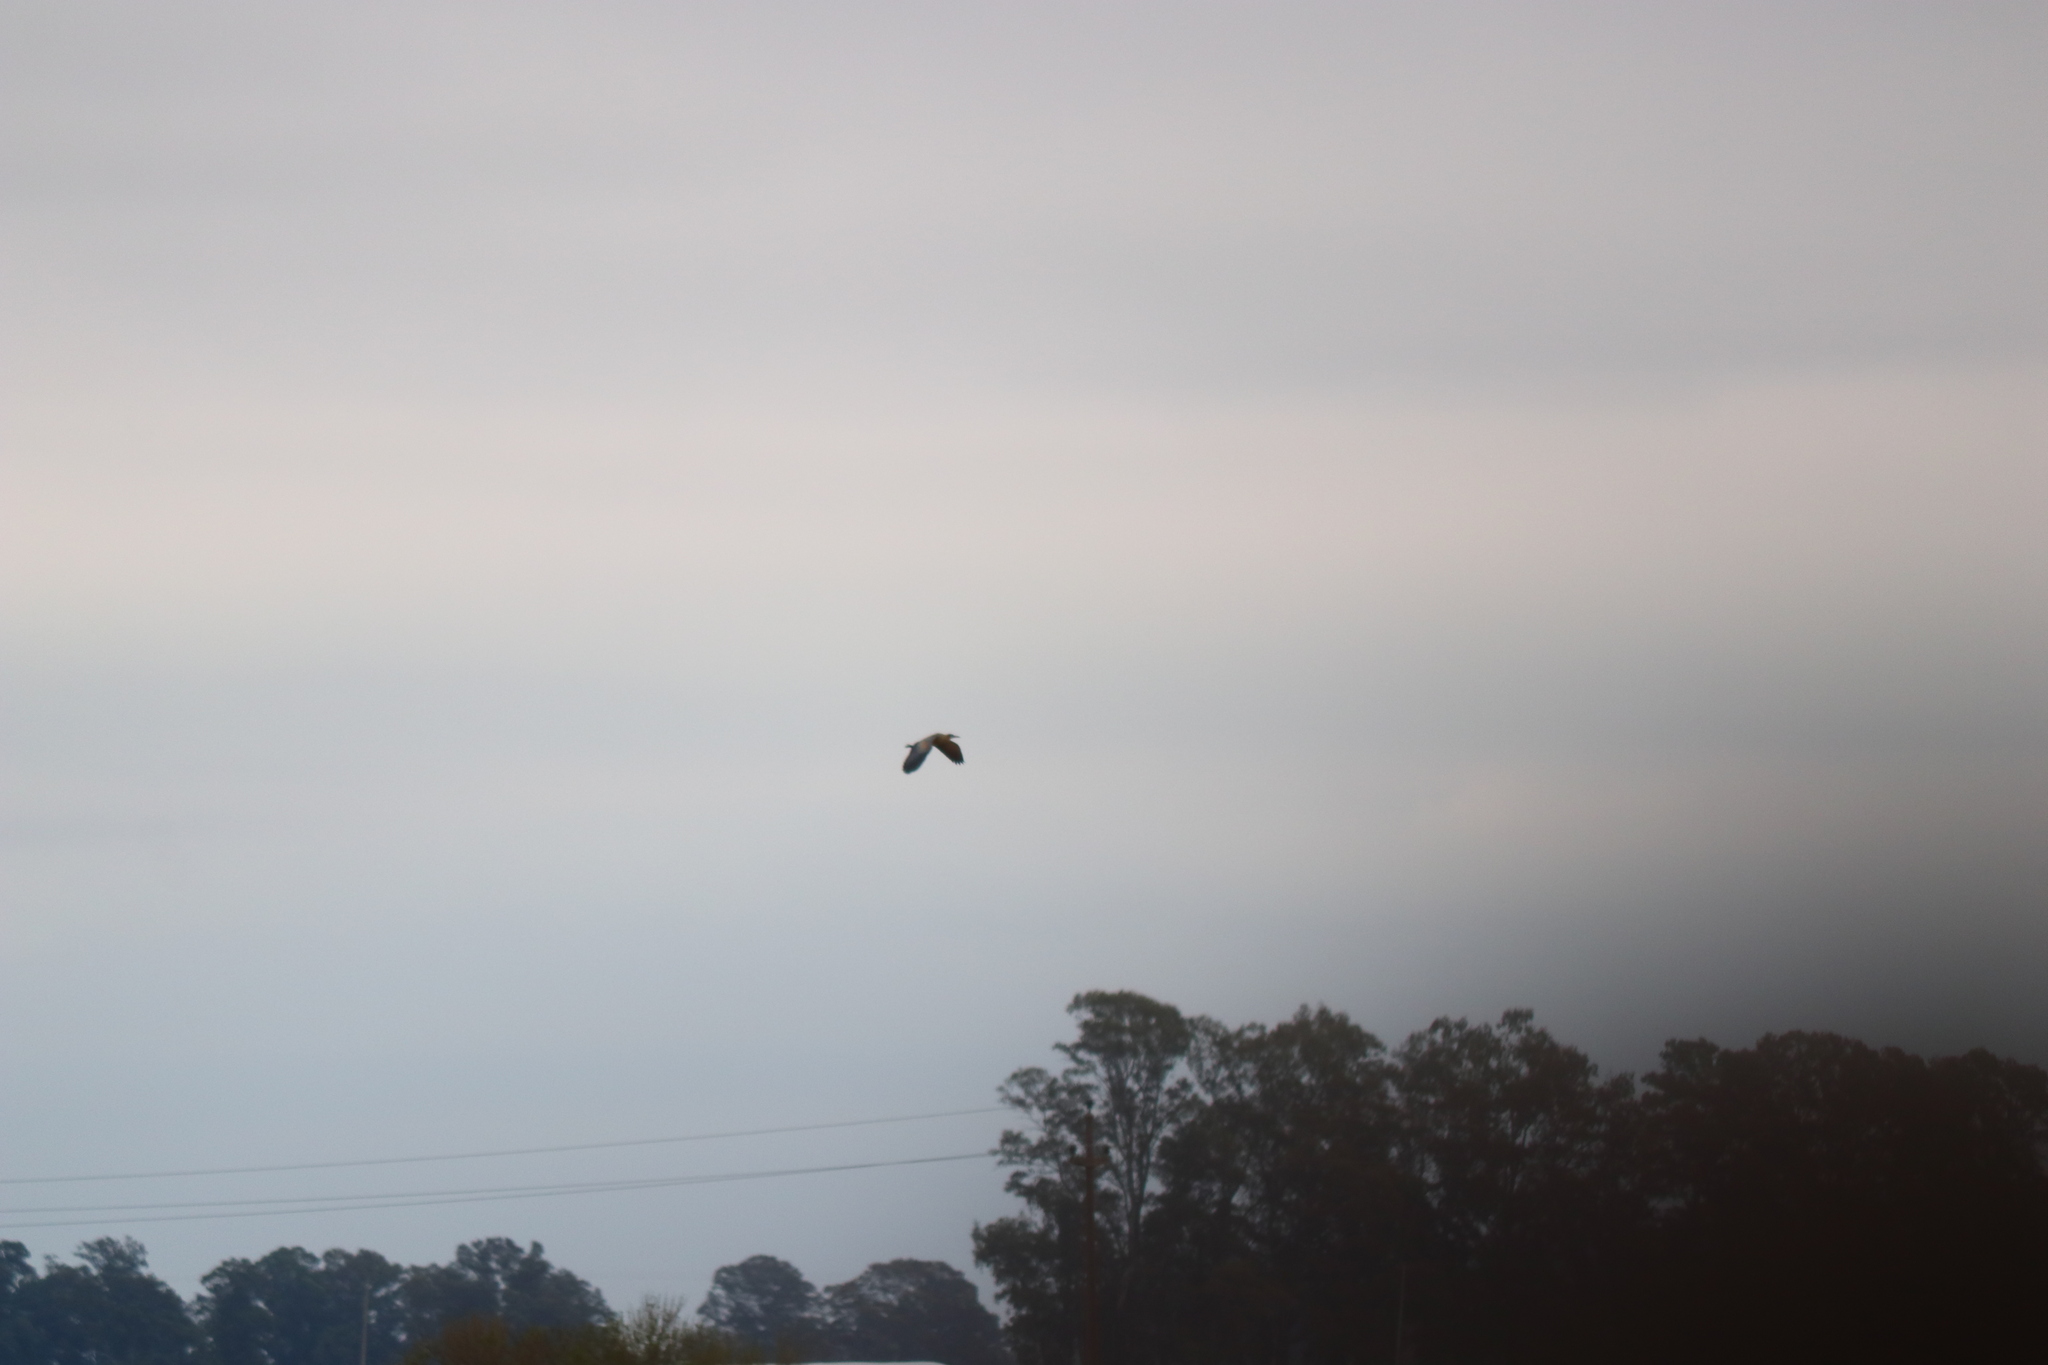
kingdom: Animalia
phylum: Chordata
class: Aves
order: Pelecaniformes
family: Ardeidae
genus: Syrigma
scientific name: Syrigma sibilatrix
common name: Whistling heron
